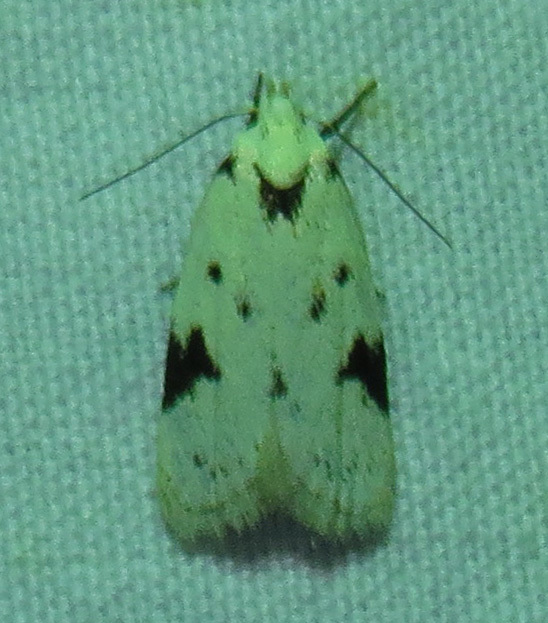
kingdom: Animalia
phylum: Arthropoda
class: Insecta
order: Lepidoptera
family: Oecophoridae
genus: Inga
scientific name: Inga sparsiciliella
